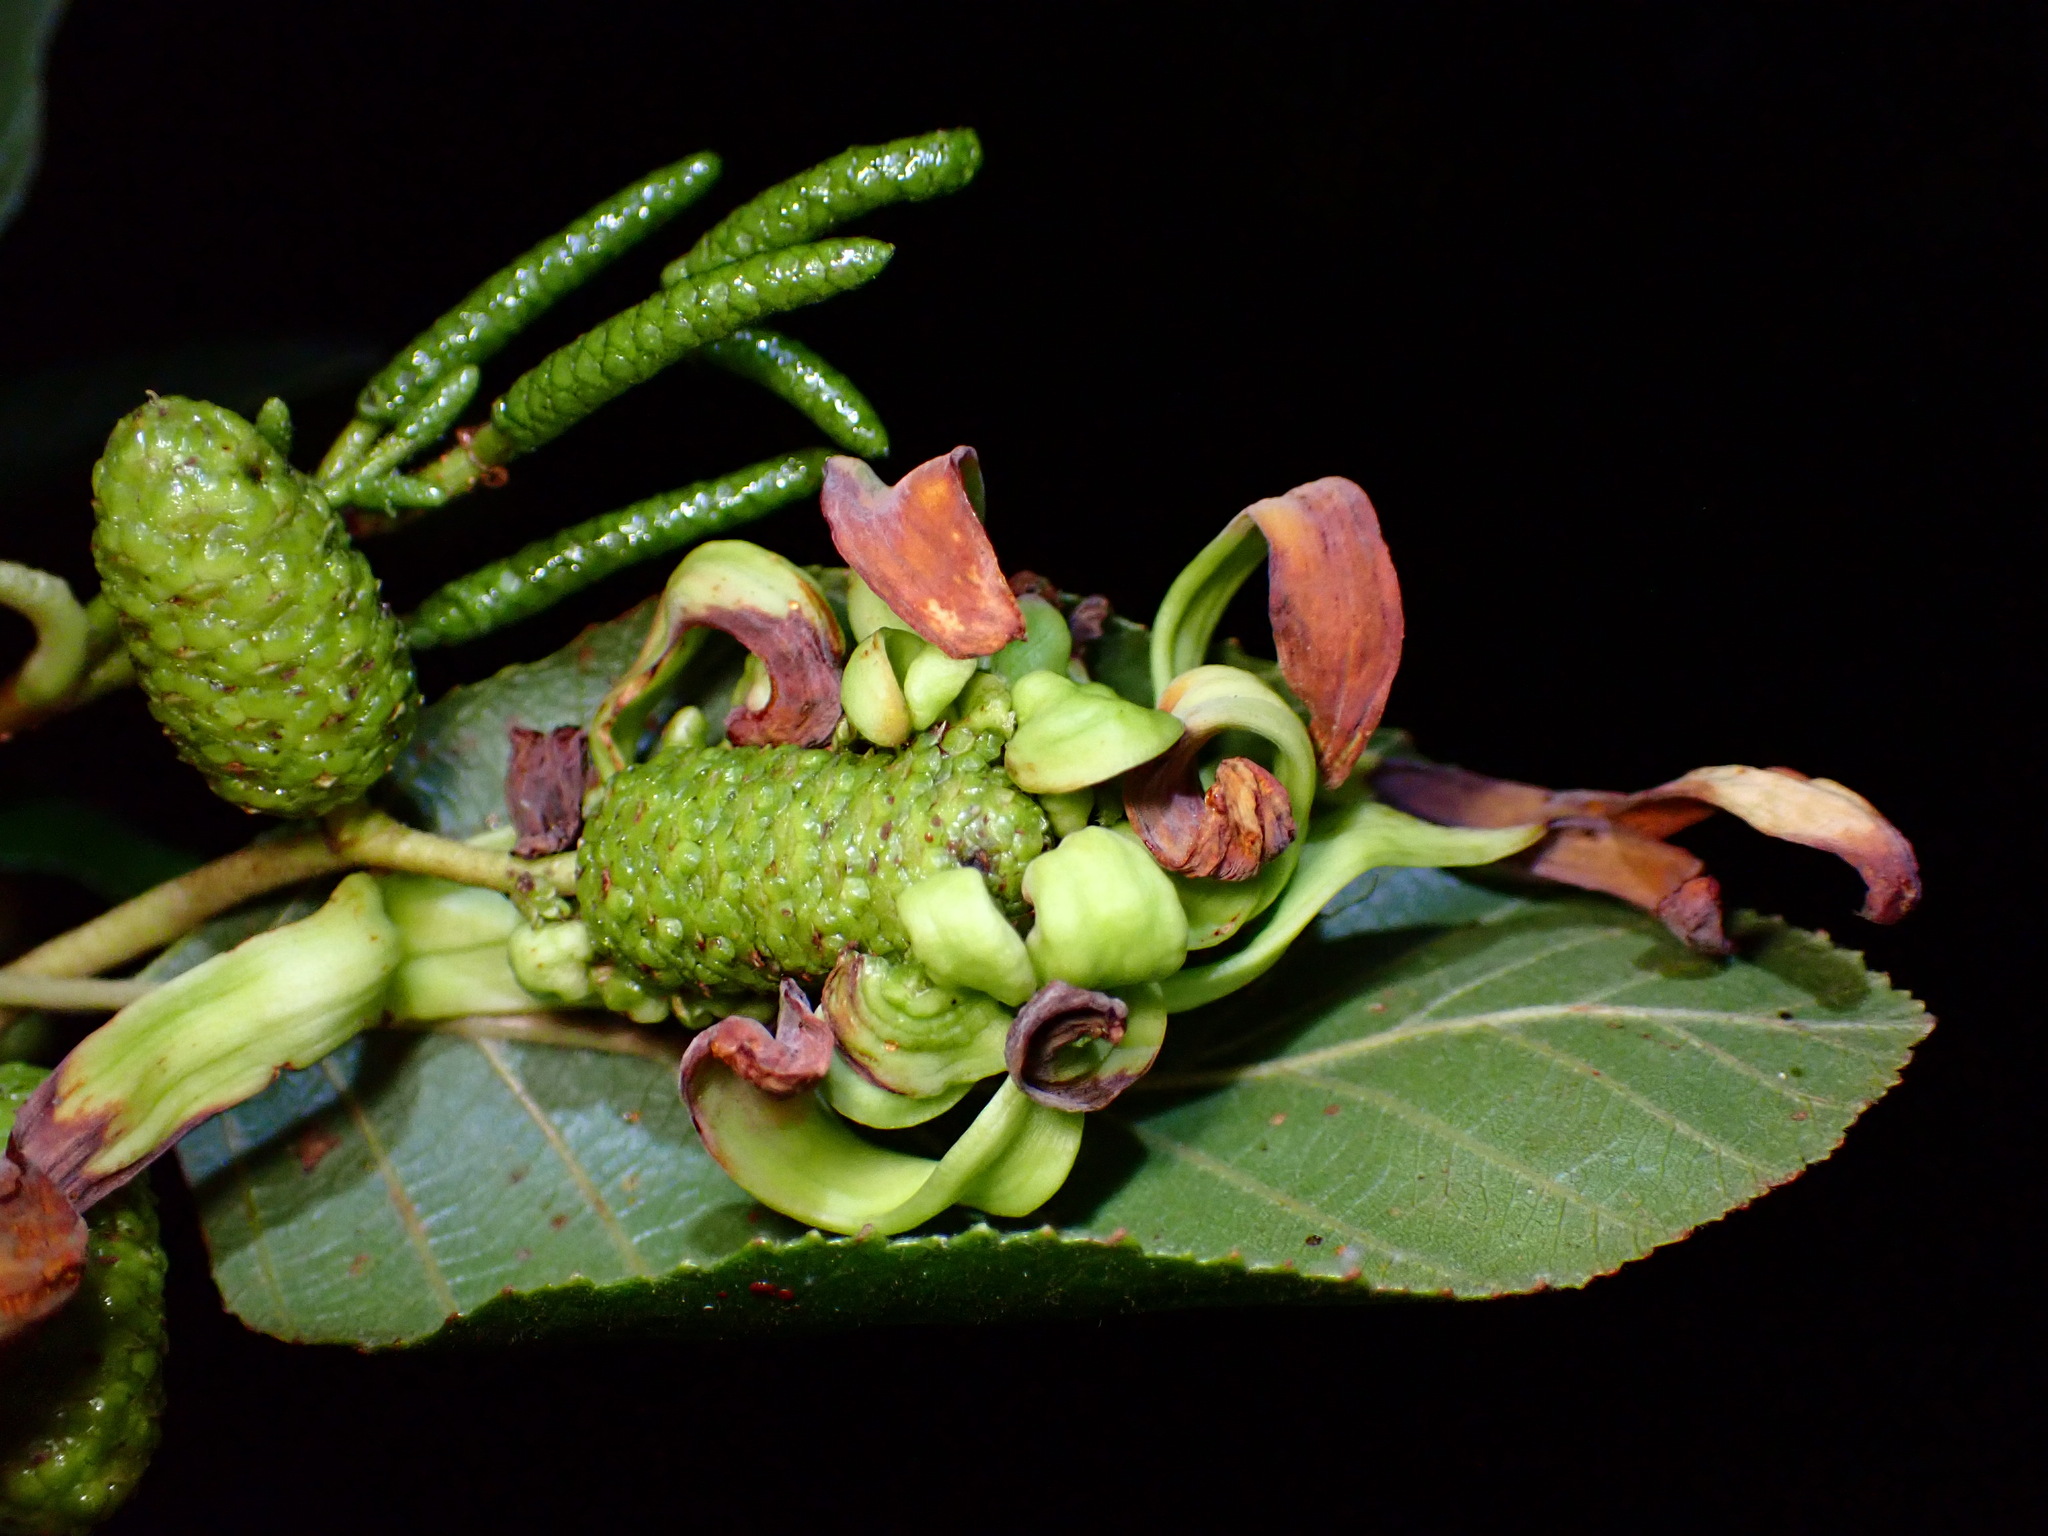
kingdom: Fungi
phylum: Ascomycota
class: Taphrinomycetes
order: Taphrinales
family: Taphrinaceae
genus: Taphrina
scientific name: Taphrina occidentalis
